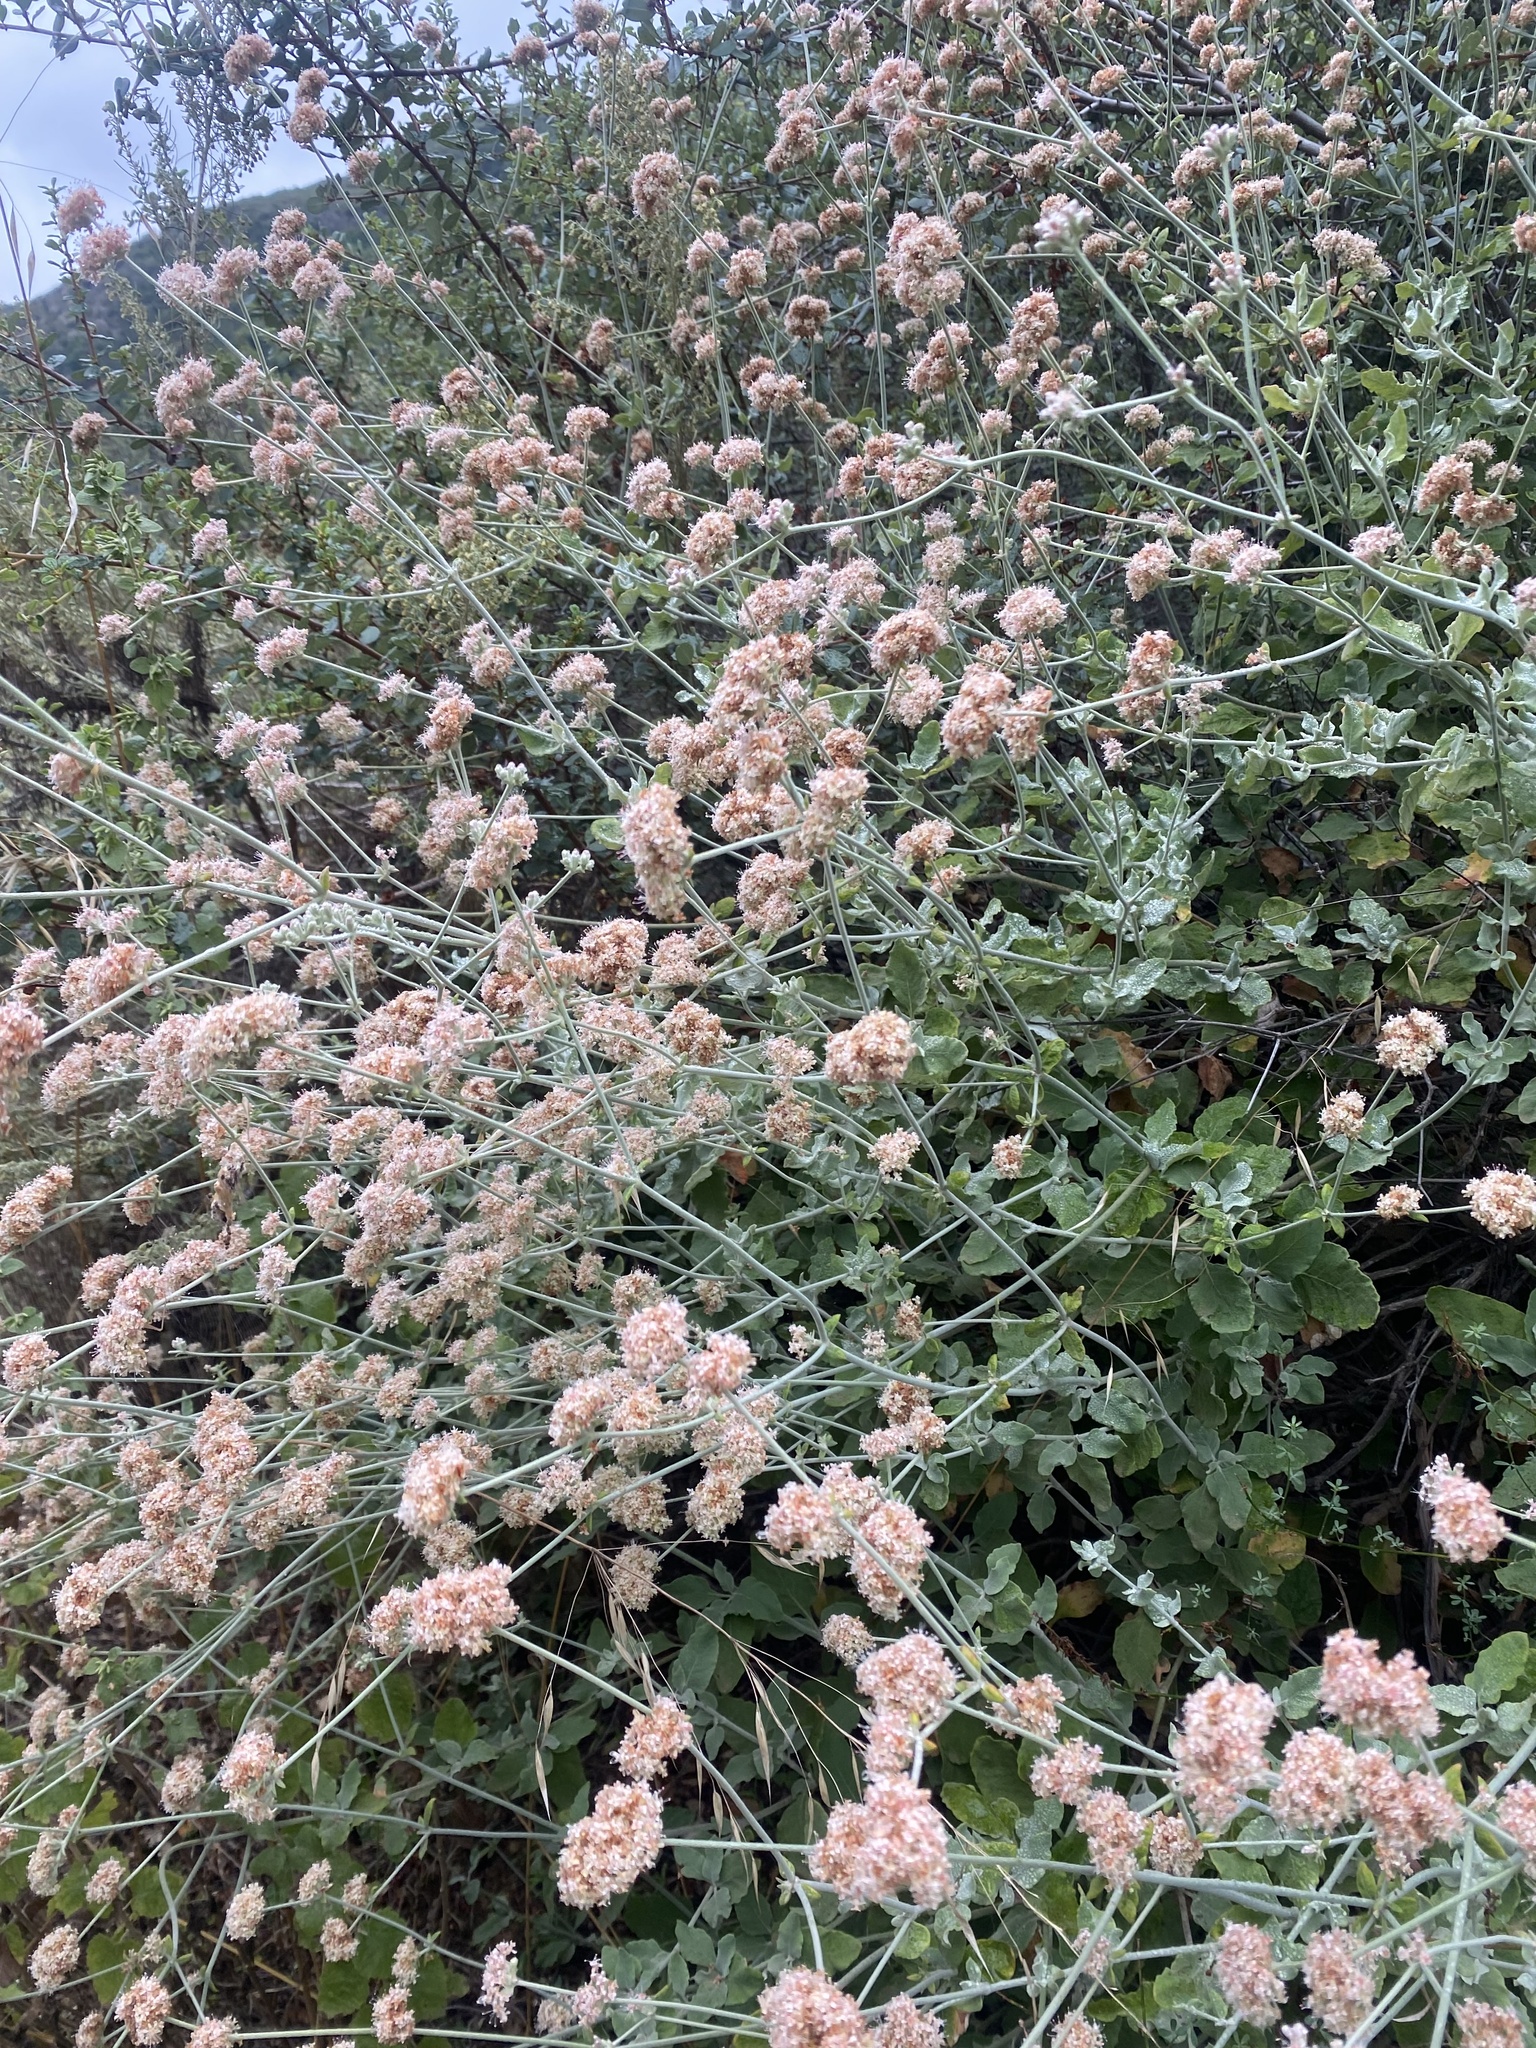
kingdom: Plantae
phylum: Tracheophyta
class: Magnoliopsida
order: Caryophyllales
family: Polygonaceae
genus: Eriogonum
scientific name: Eriogonum cinereum
